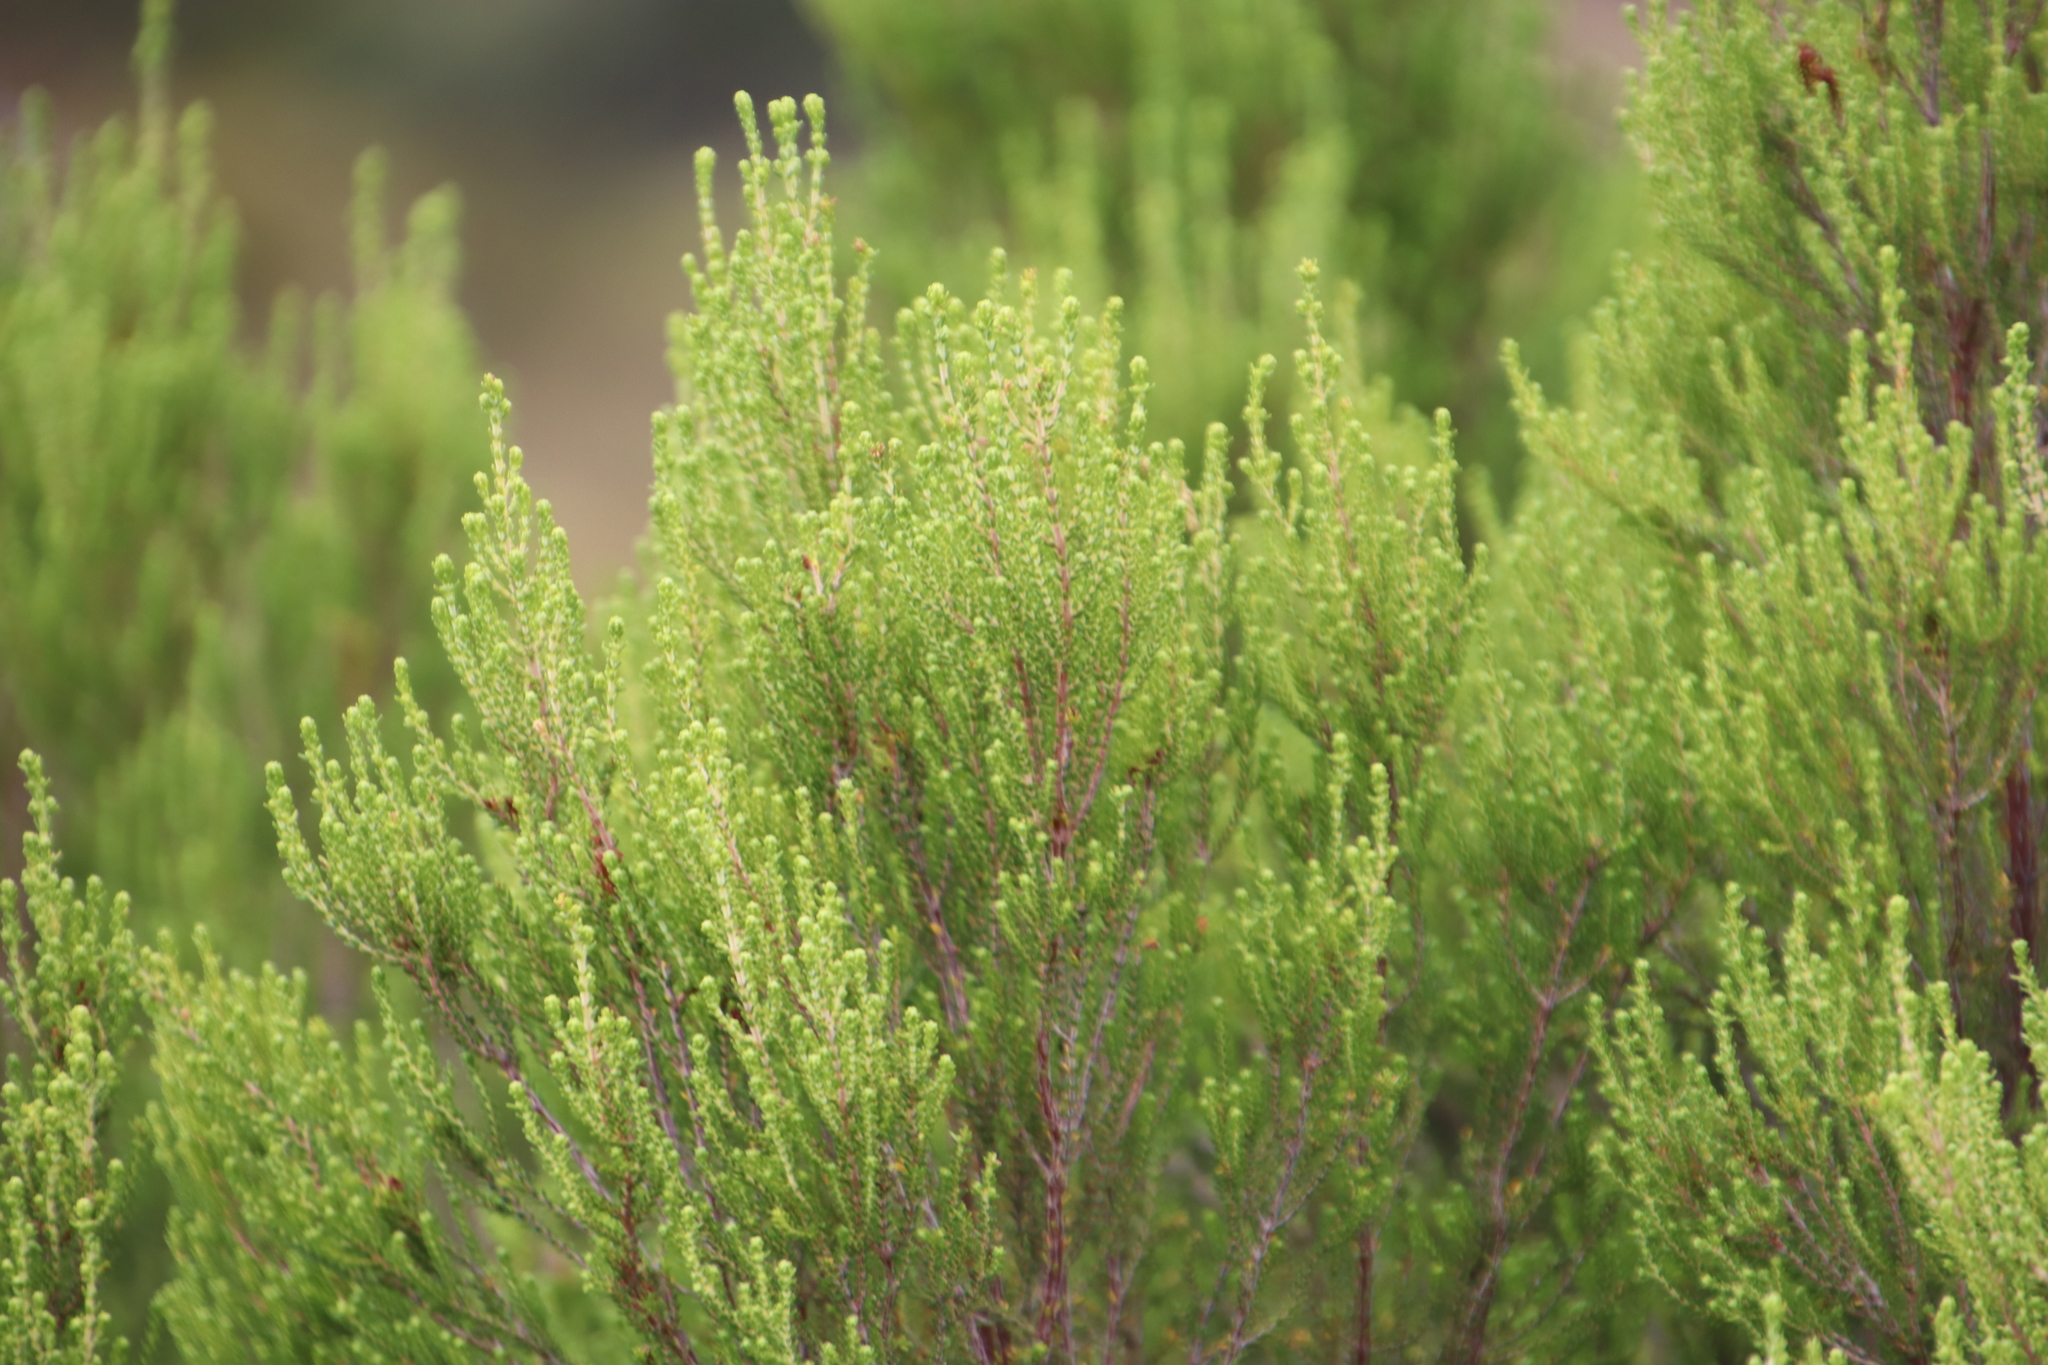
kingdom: Plantae
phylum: Tracheophyta
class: Magnoliopsida
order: Ericales
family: Ericaceae
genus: Erica
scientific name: Erica tristis
